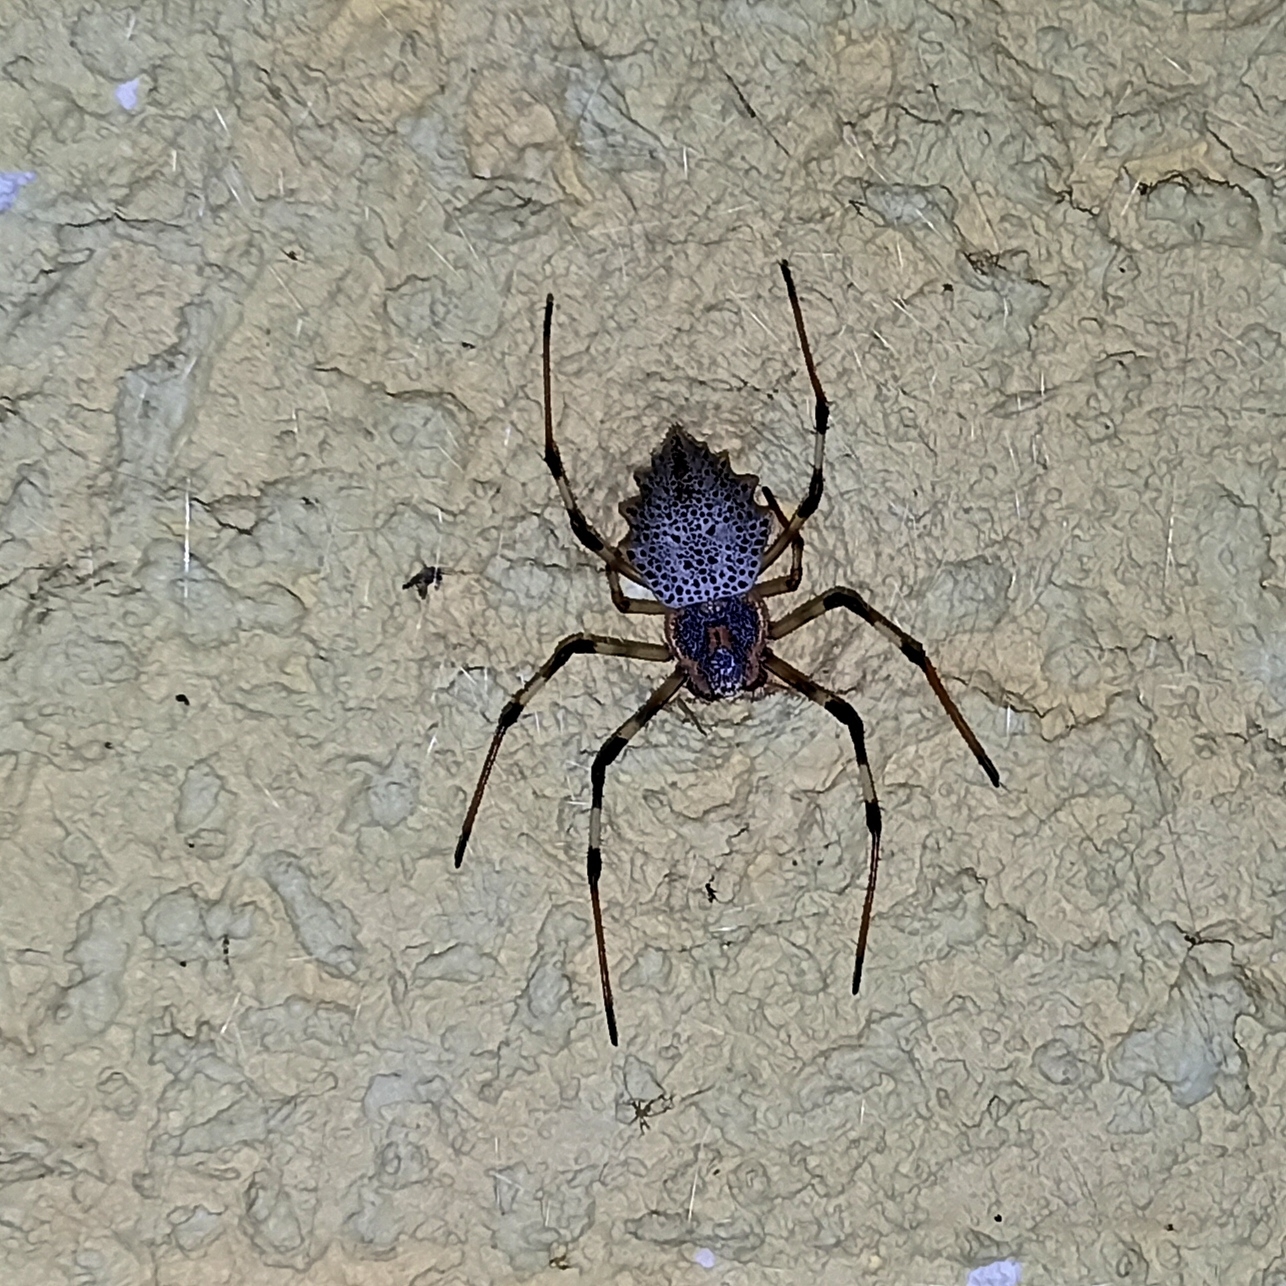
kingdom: Animalia
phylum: Arthropoda
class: Arachnida
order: Araneae
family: Araneidae
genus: Herennia
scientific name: Herennia multipuncta
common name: Spotted coin spider
